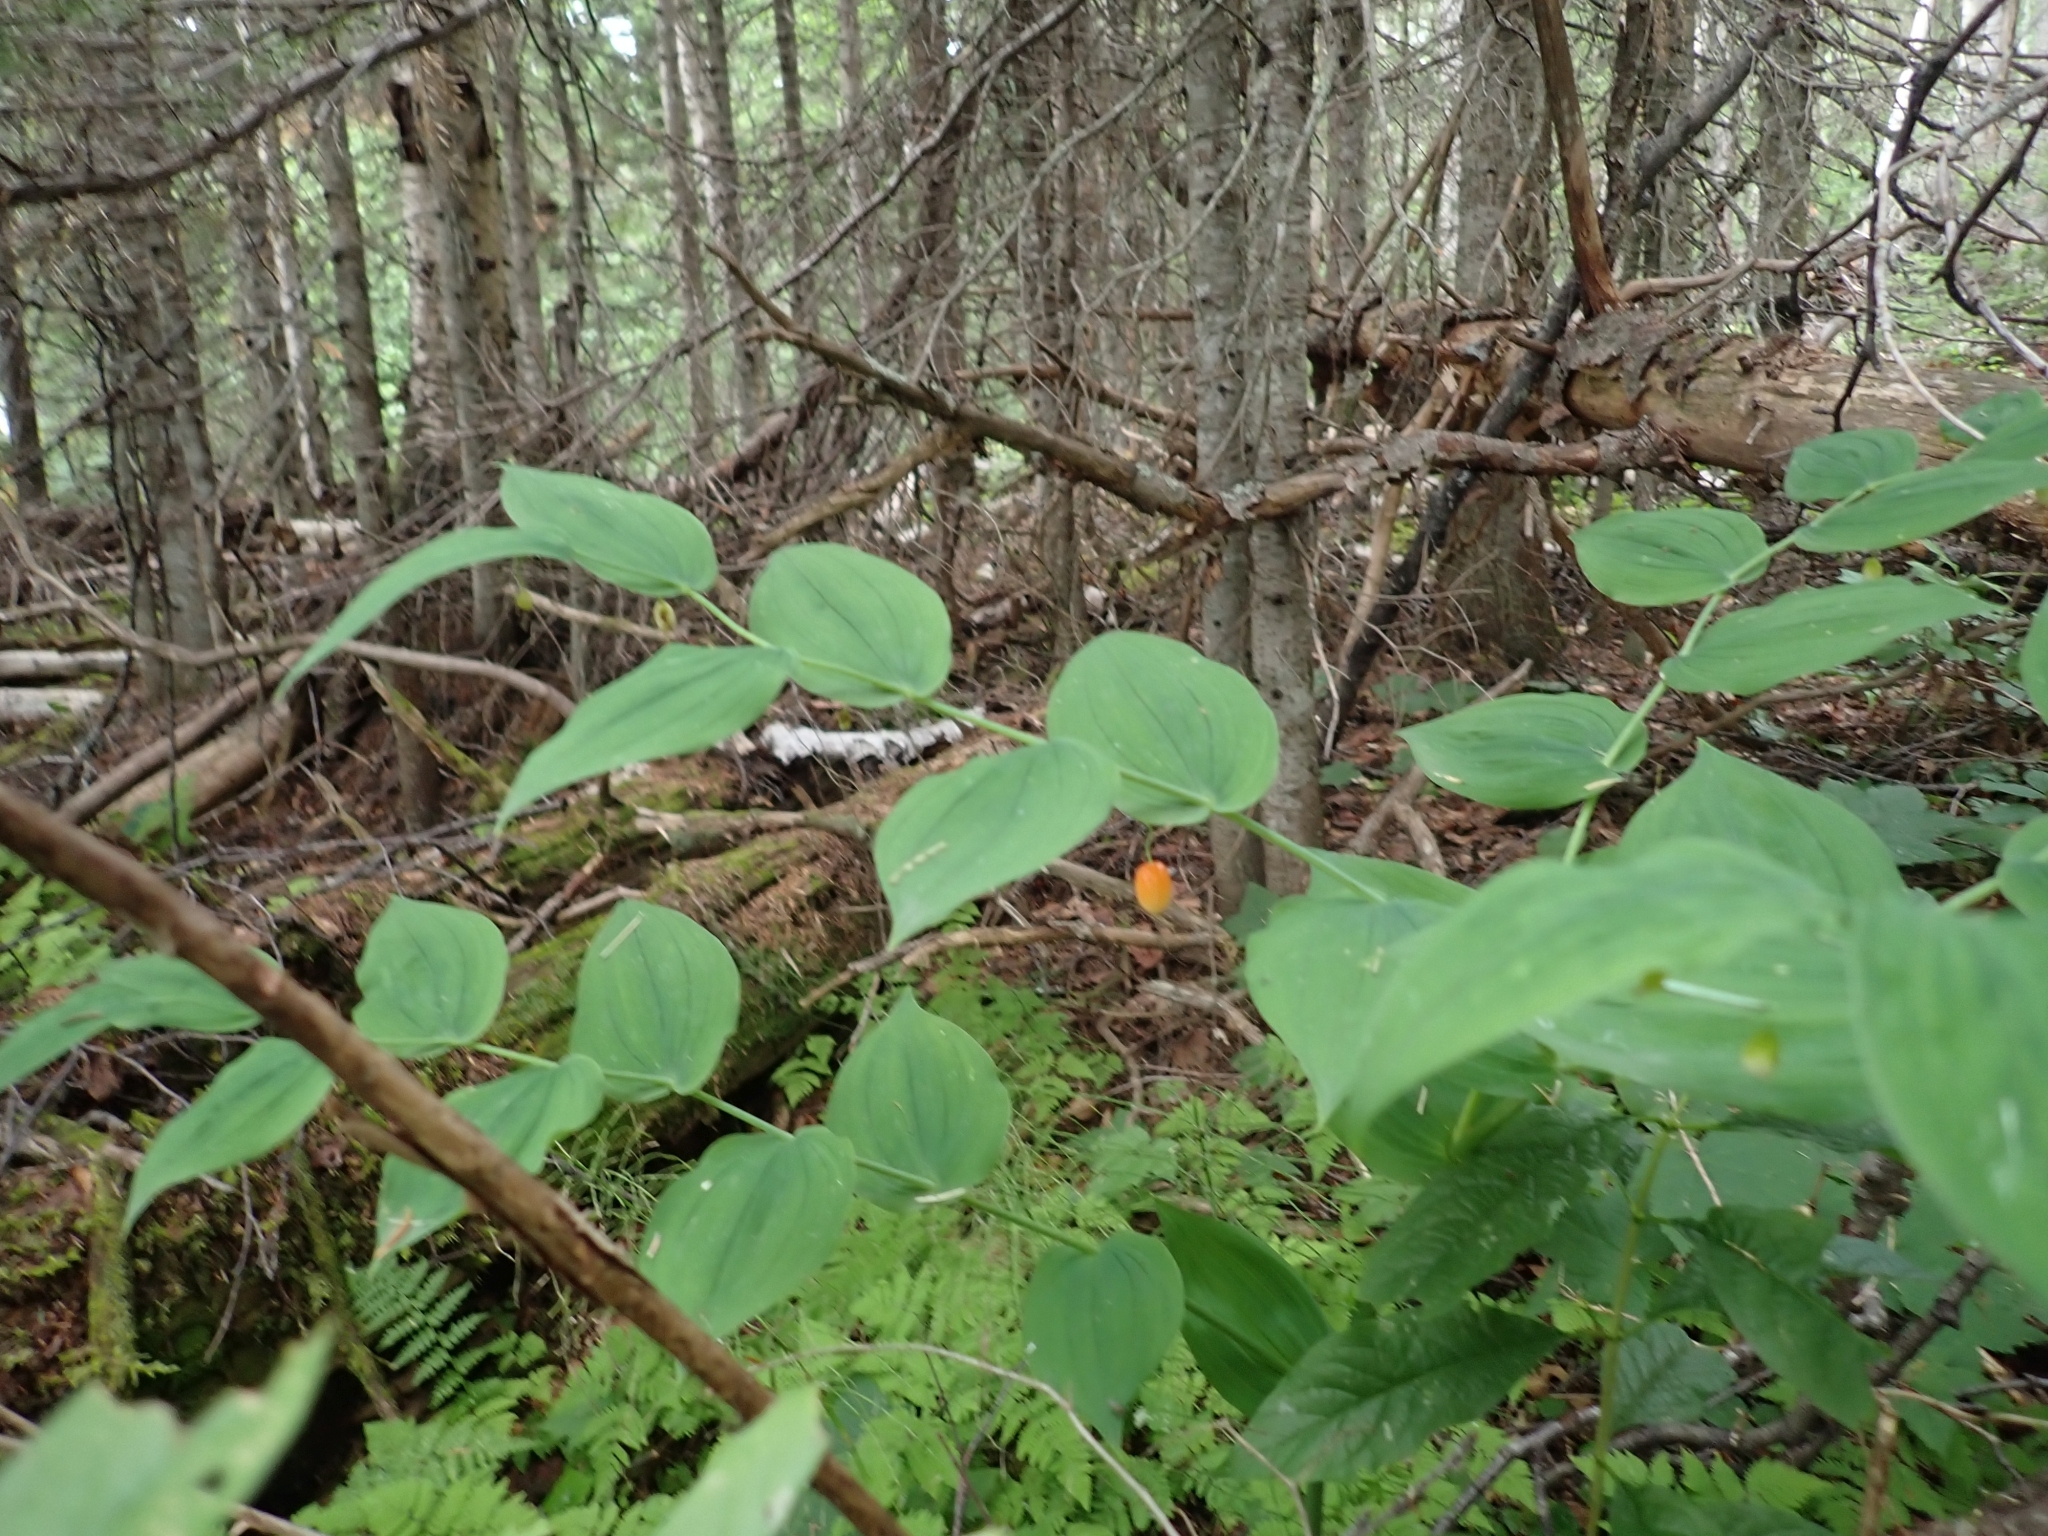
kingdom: Plantae
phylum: Tracheophyta
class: Liliopsida
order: Liliales
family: Liliaceae
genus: Streptopus
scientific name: Streptopus amplexifolius
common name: Clasp twisted stalk
